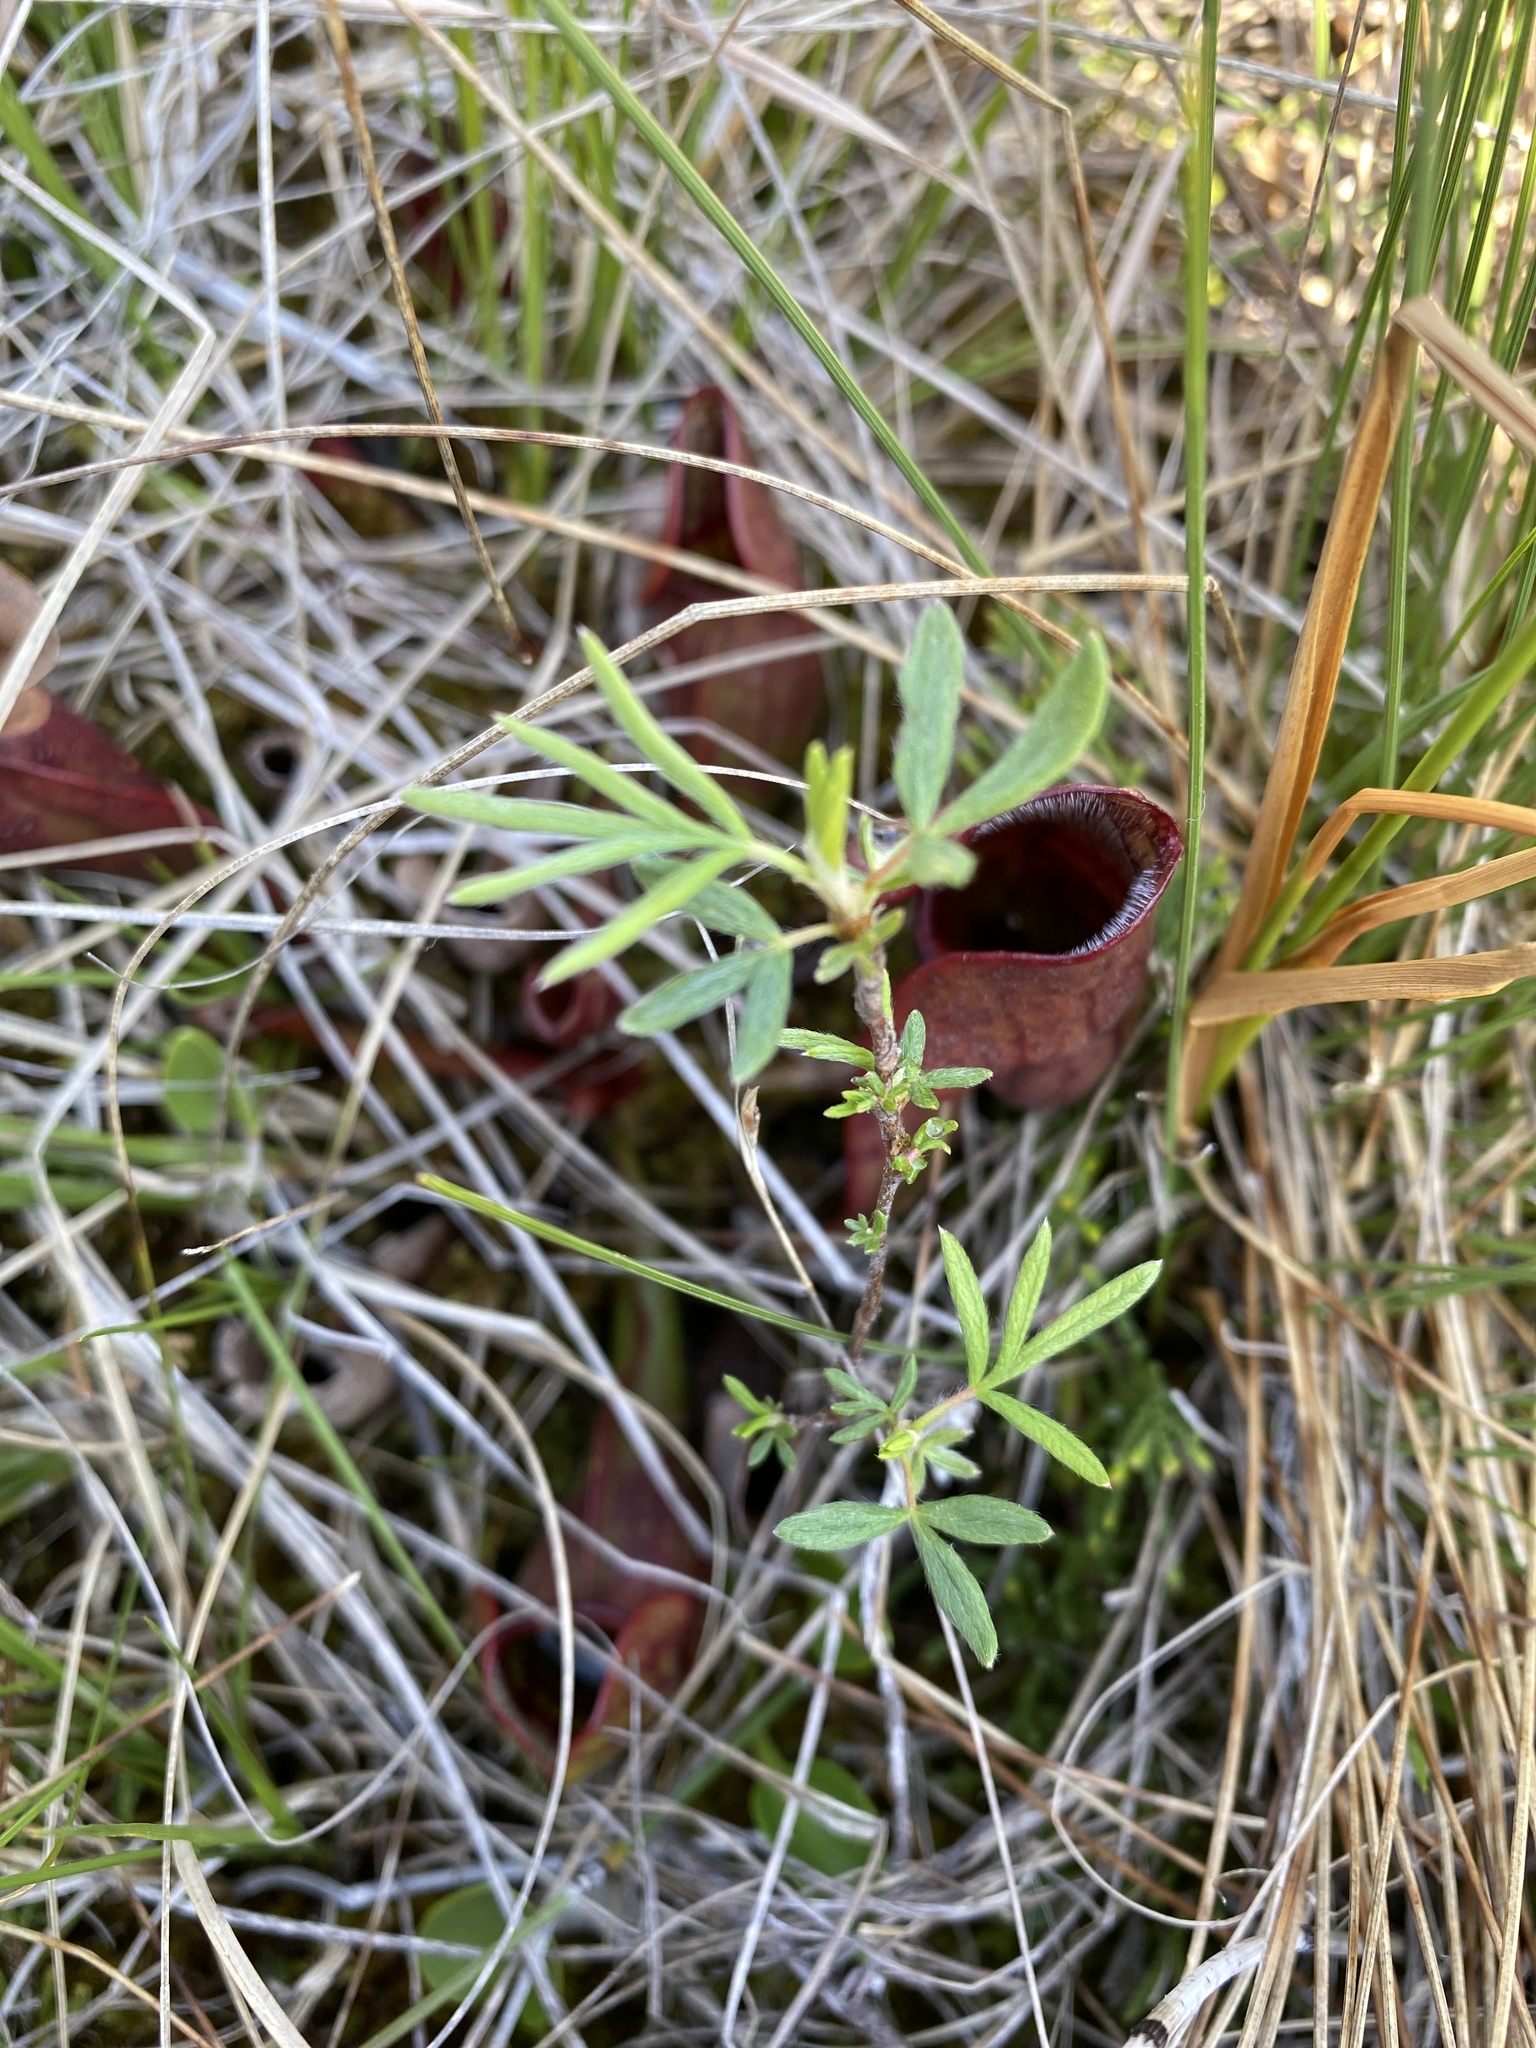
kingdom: Plantae
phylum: Tracheophyta
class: Magnoliopsida
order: Ericales
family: Sarraceniaceae
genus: Sarracenia
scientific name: Sarracenia purpurea
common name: Pitcherplant
